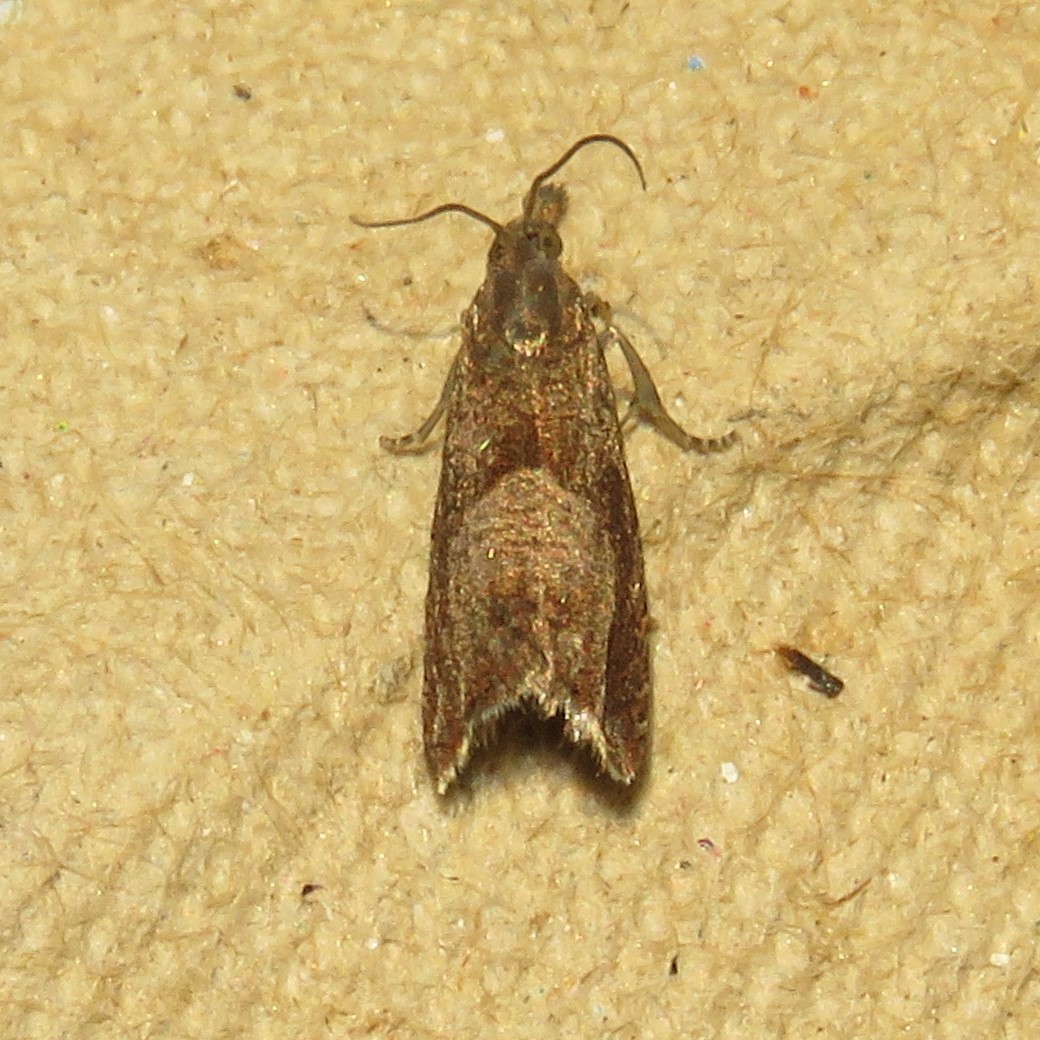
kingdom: Animalia
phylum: Arthropoda
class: Insecta
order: Lepidoptera
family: Tortricidae
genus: Dichrorampha
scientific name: Dichrorampha acuminatana
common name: Sharp-winged drill
